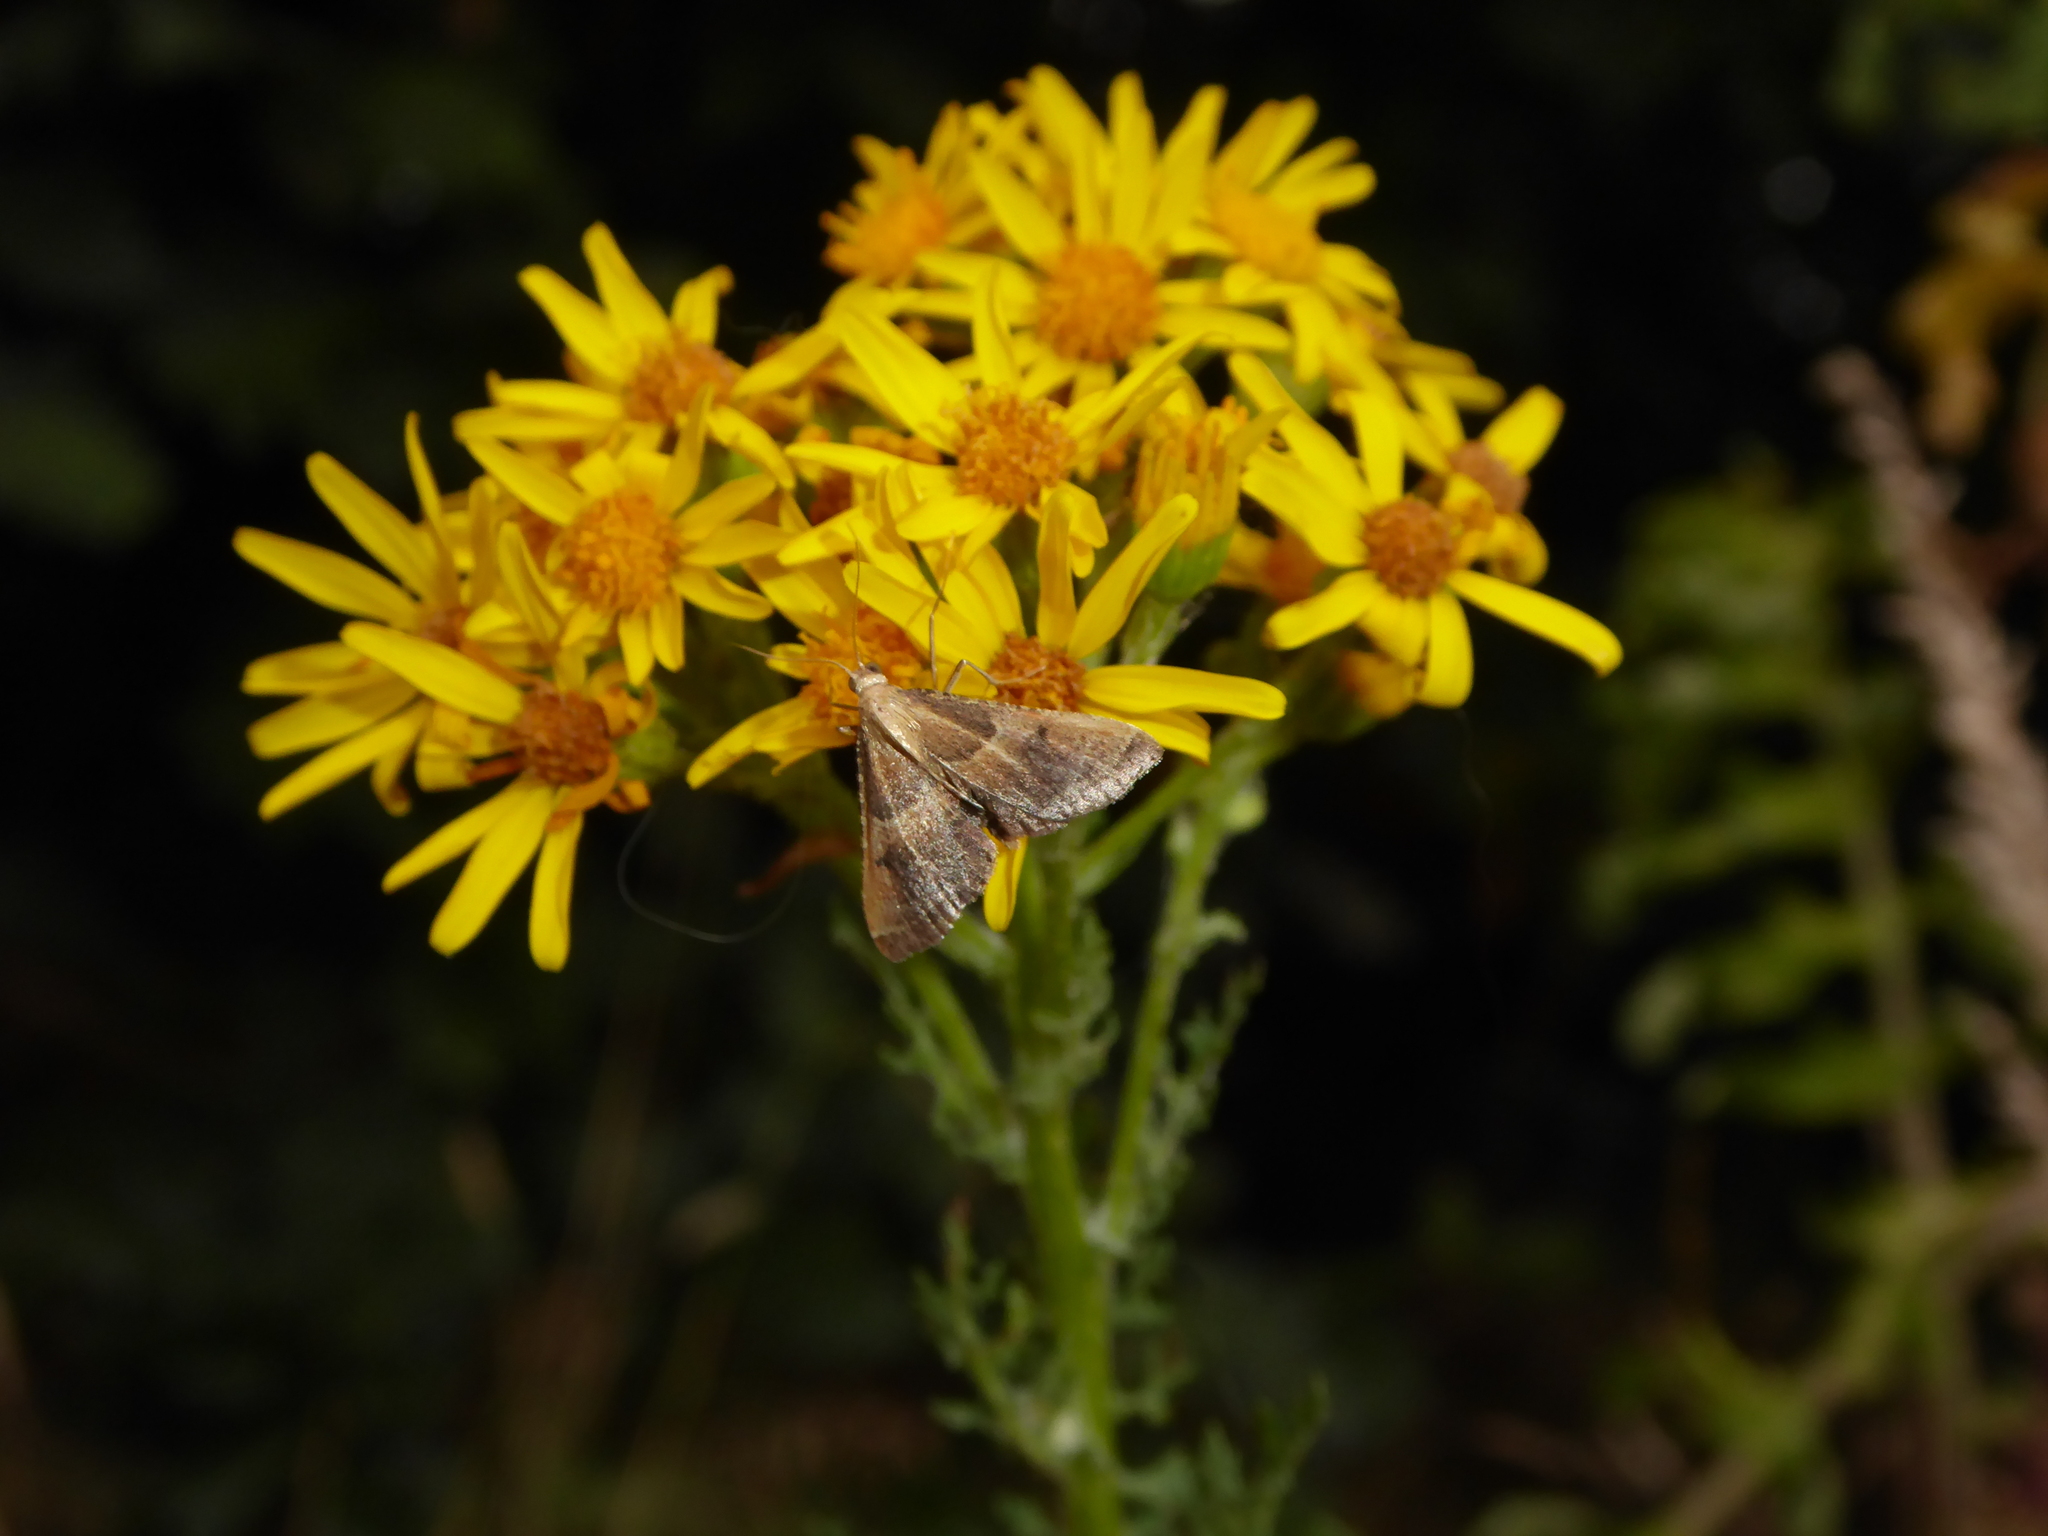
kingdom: Animalia
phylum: Arthropoda
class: Insecta
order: Lepidoptera
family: Pyralidae
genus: Endotricha
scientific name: Endotricha flammealis
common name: Rosy tabby
